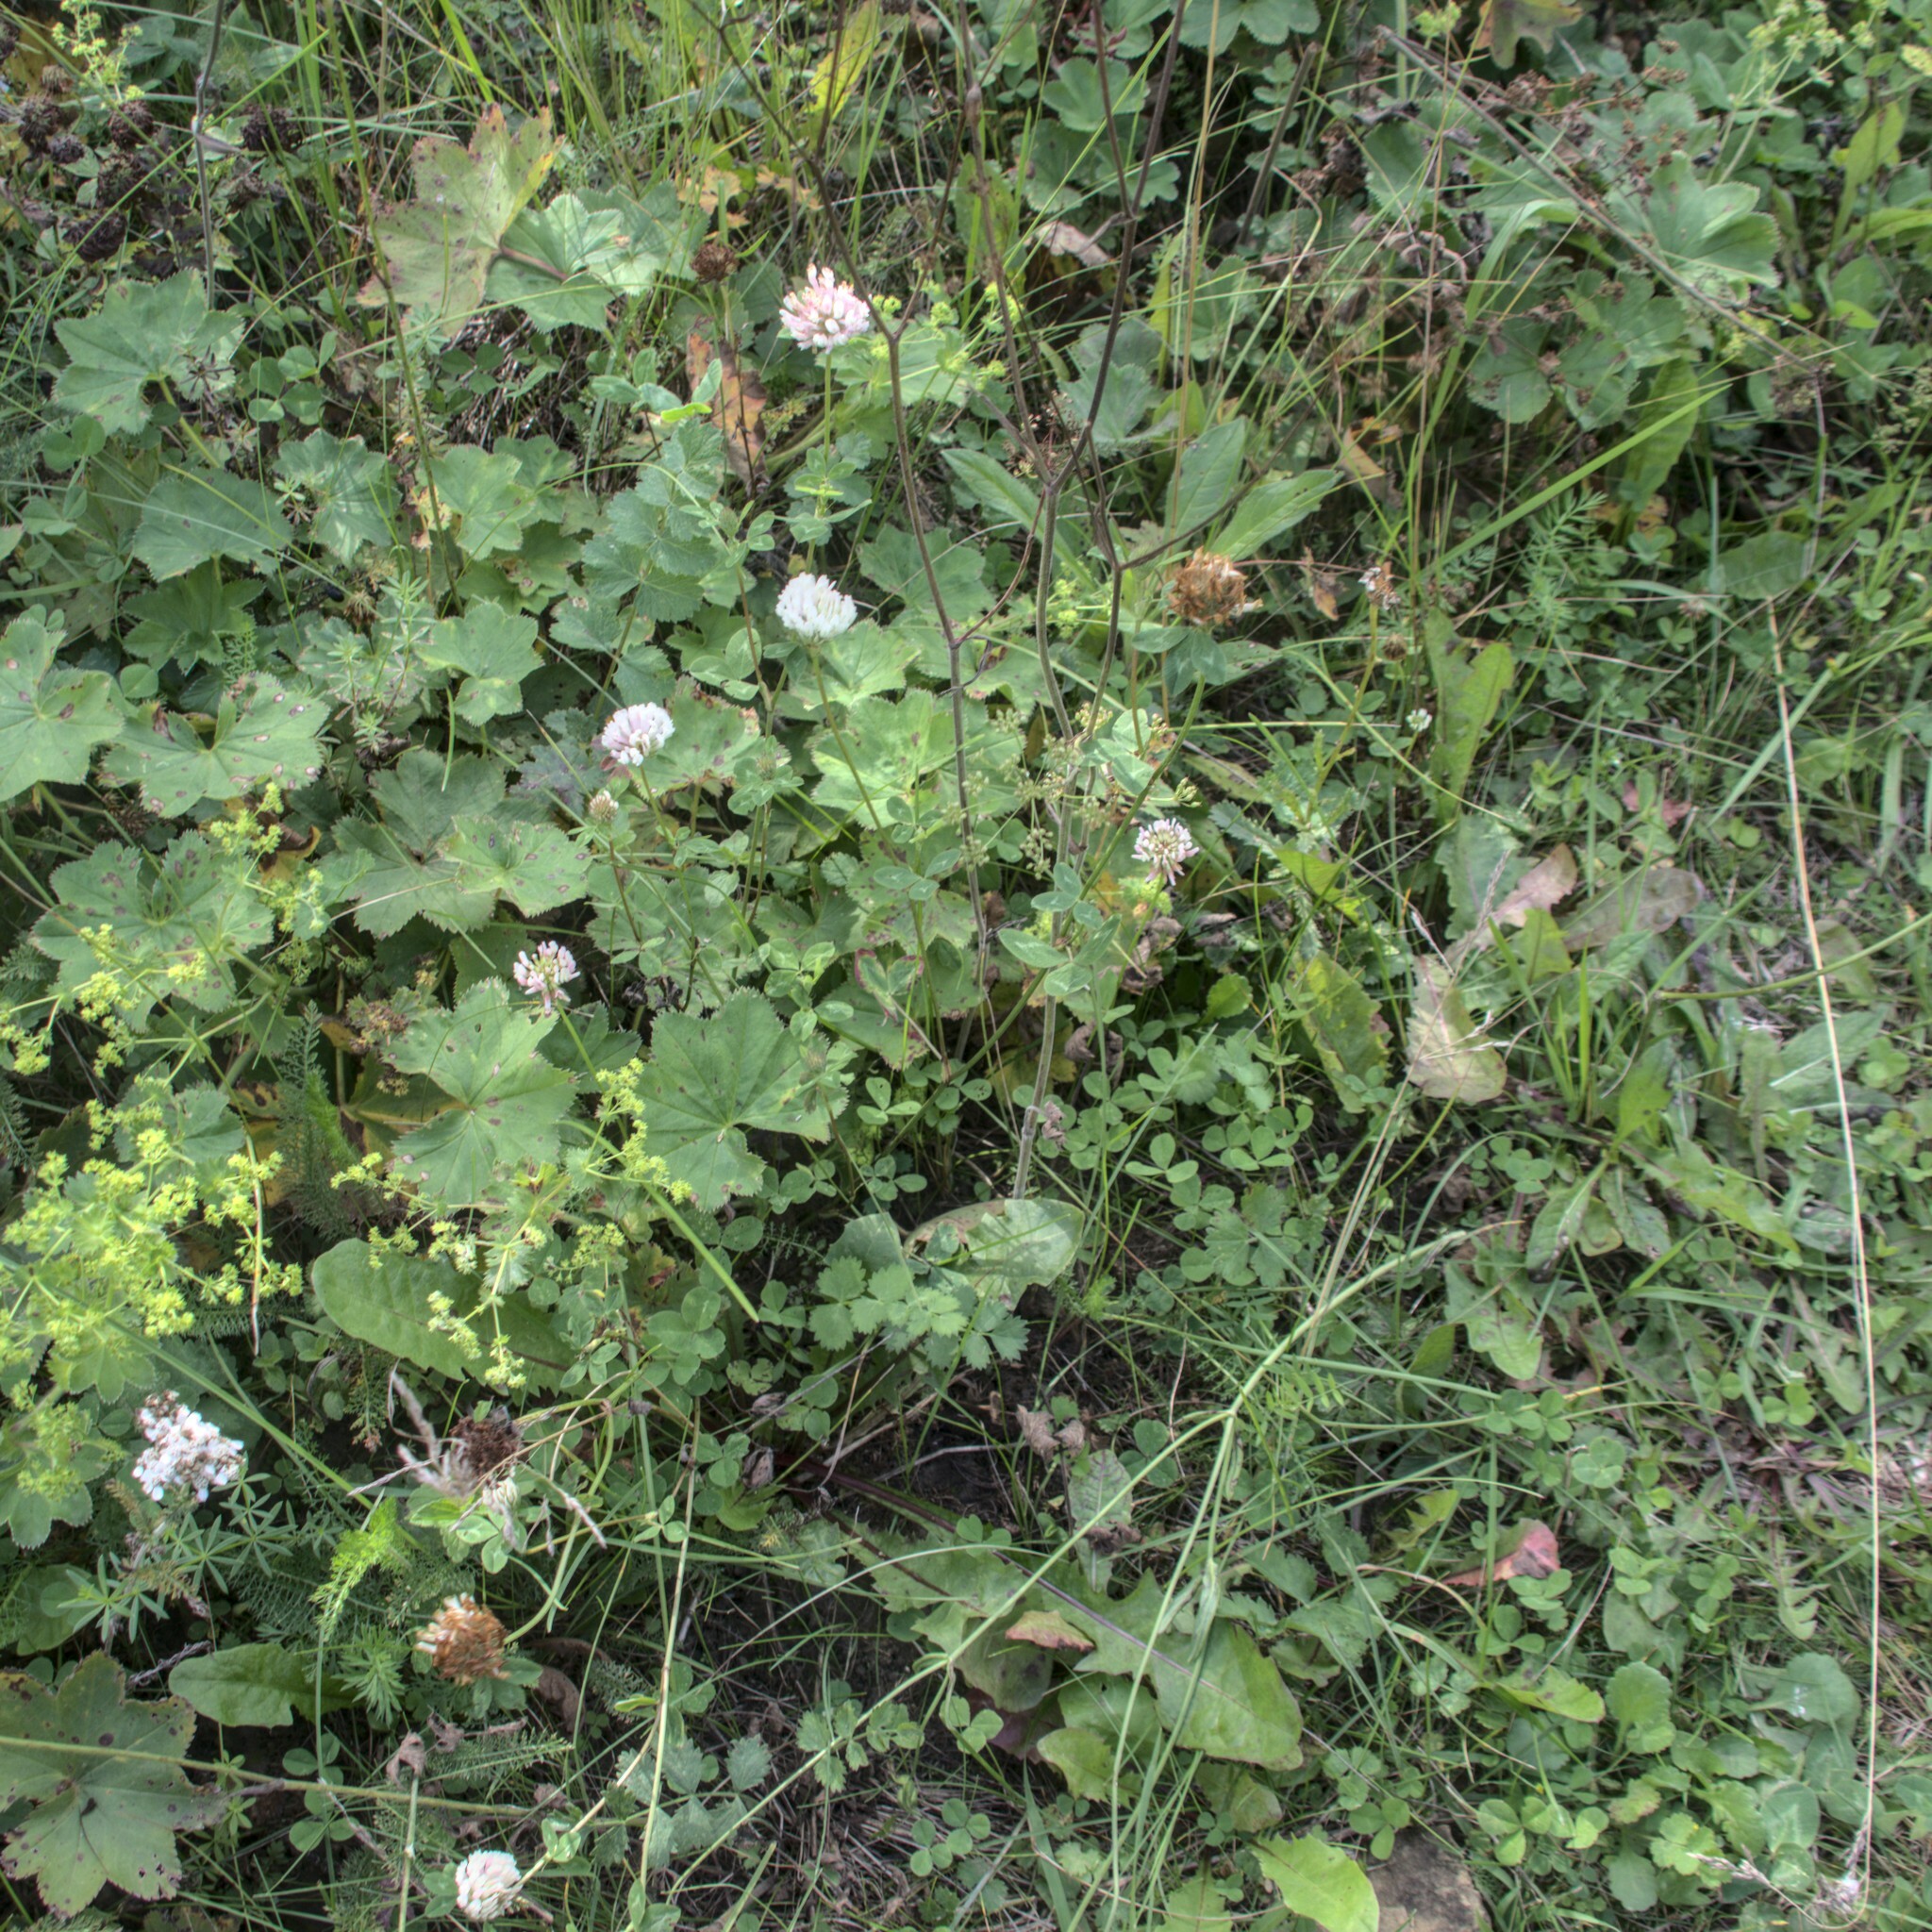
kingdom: Plantae
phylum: Tracheophyta
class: Magnoliopsida
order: Fabales
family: Fabaceae
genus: Trifolium
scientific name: Trifolium pratense
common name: Red clover
